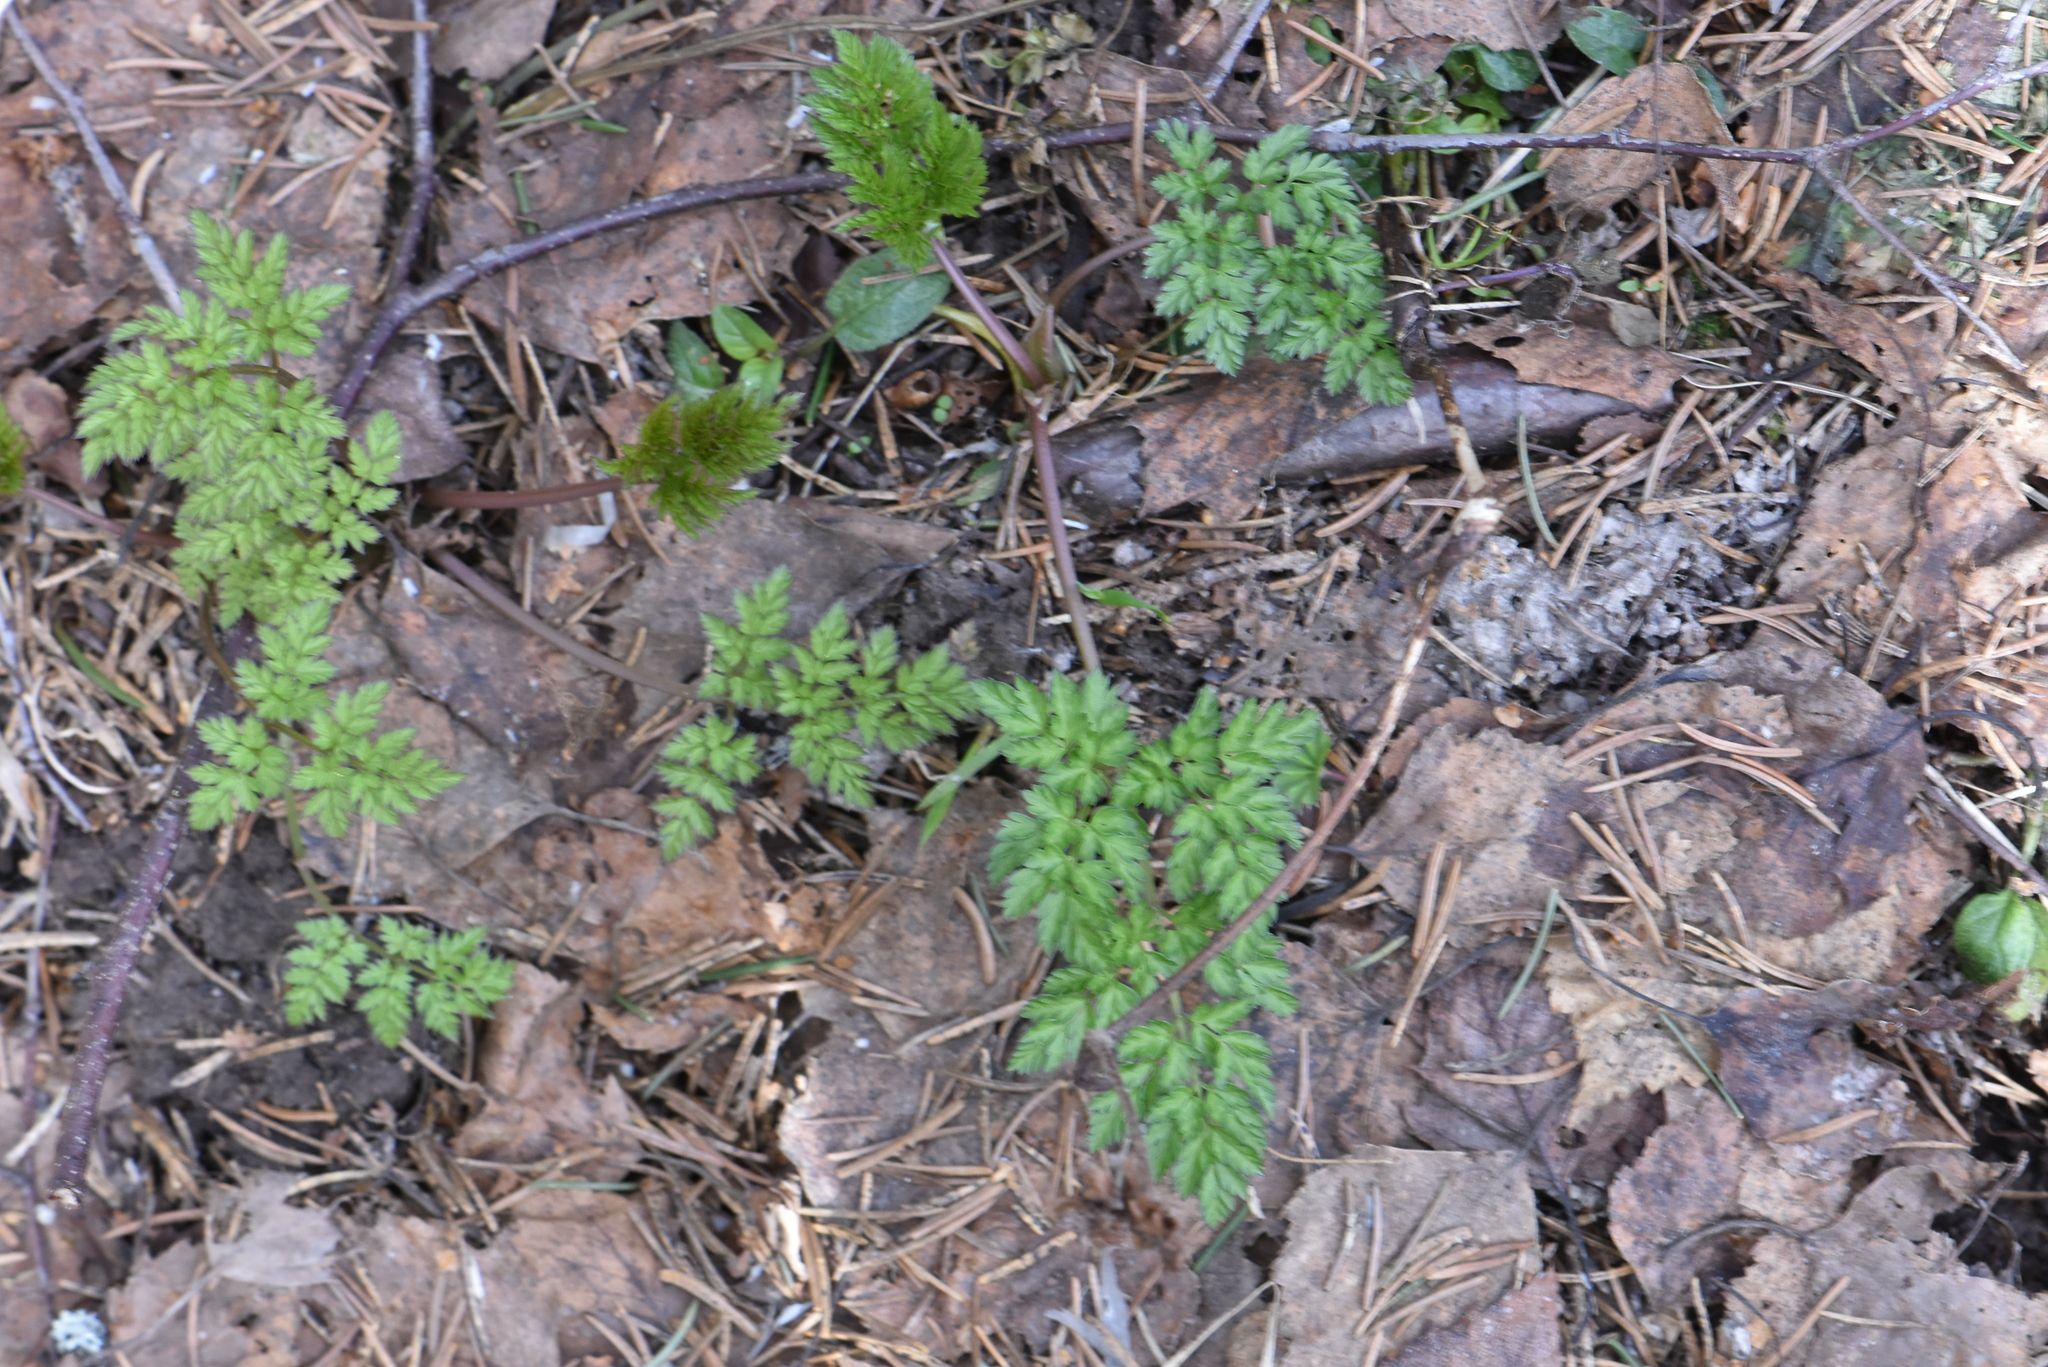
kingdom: Plantae
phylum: Tracheophyta
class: Magnoliopsida
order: Apiales
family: Apiaceae
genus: Anthriscus
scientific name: Anthriscus sylvestris
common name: Cow parsley
